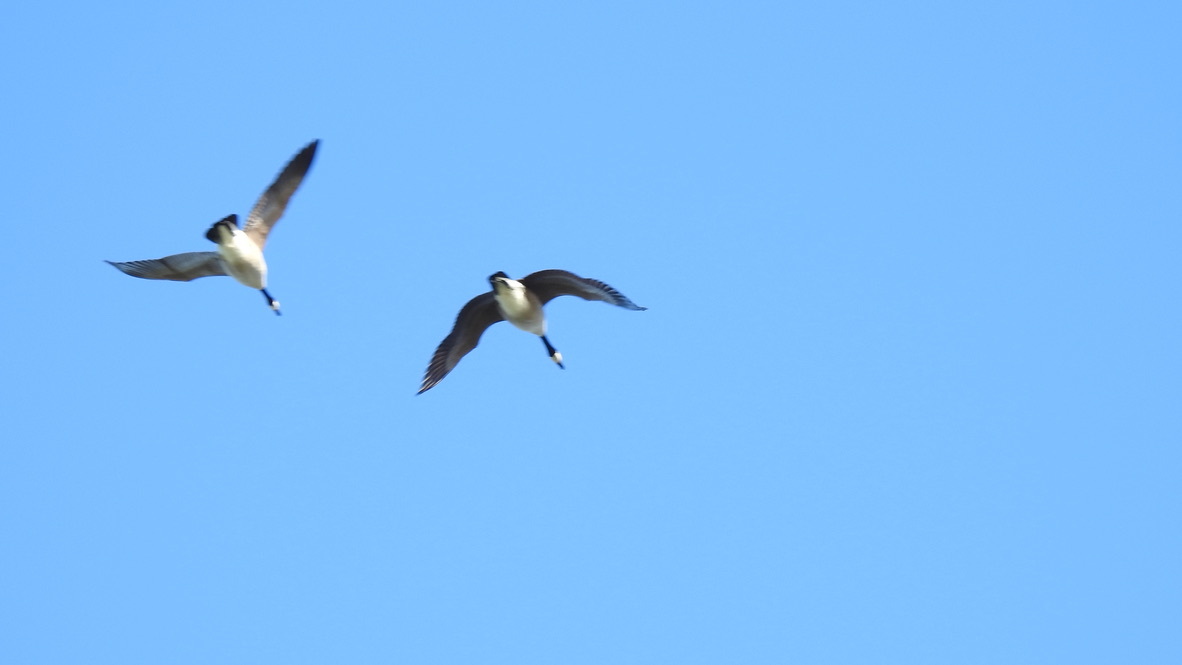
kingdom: Animalia
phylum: Chordata
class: Aves
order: Anseriformes
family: Anatidae
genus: Branta
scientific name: Branta canadensis
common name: Canada goose
